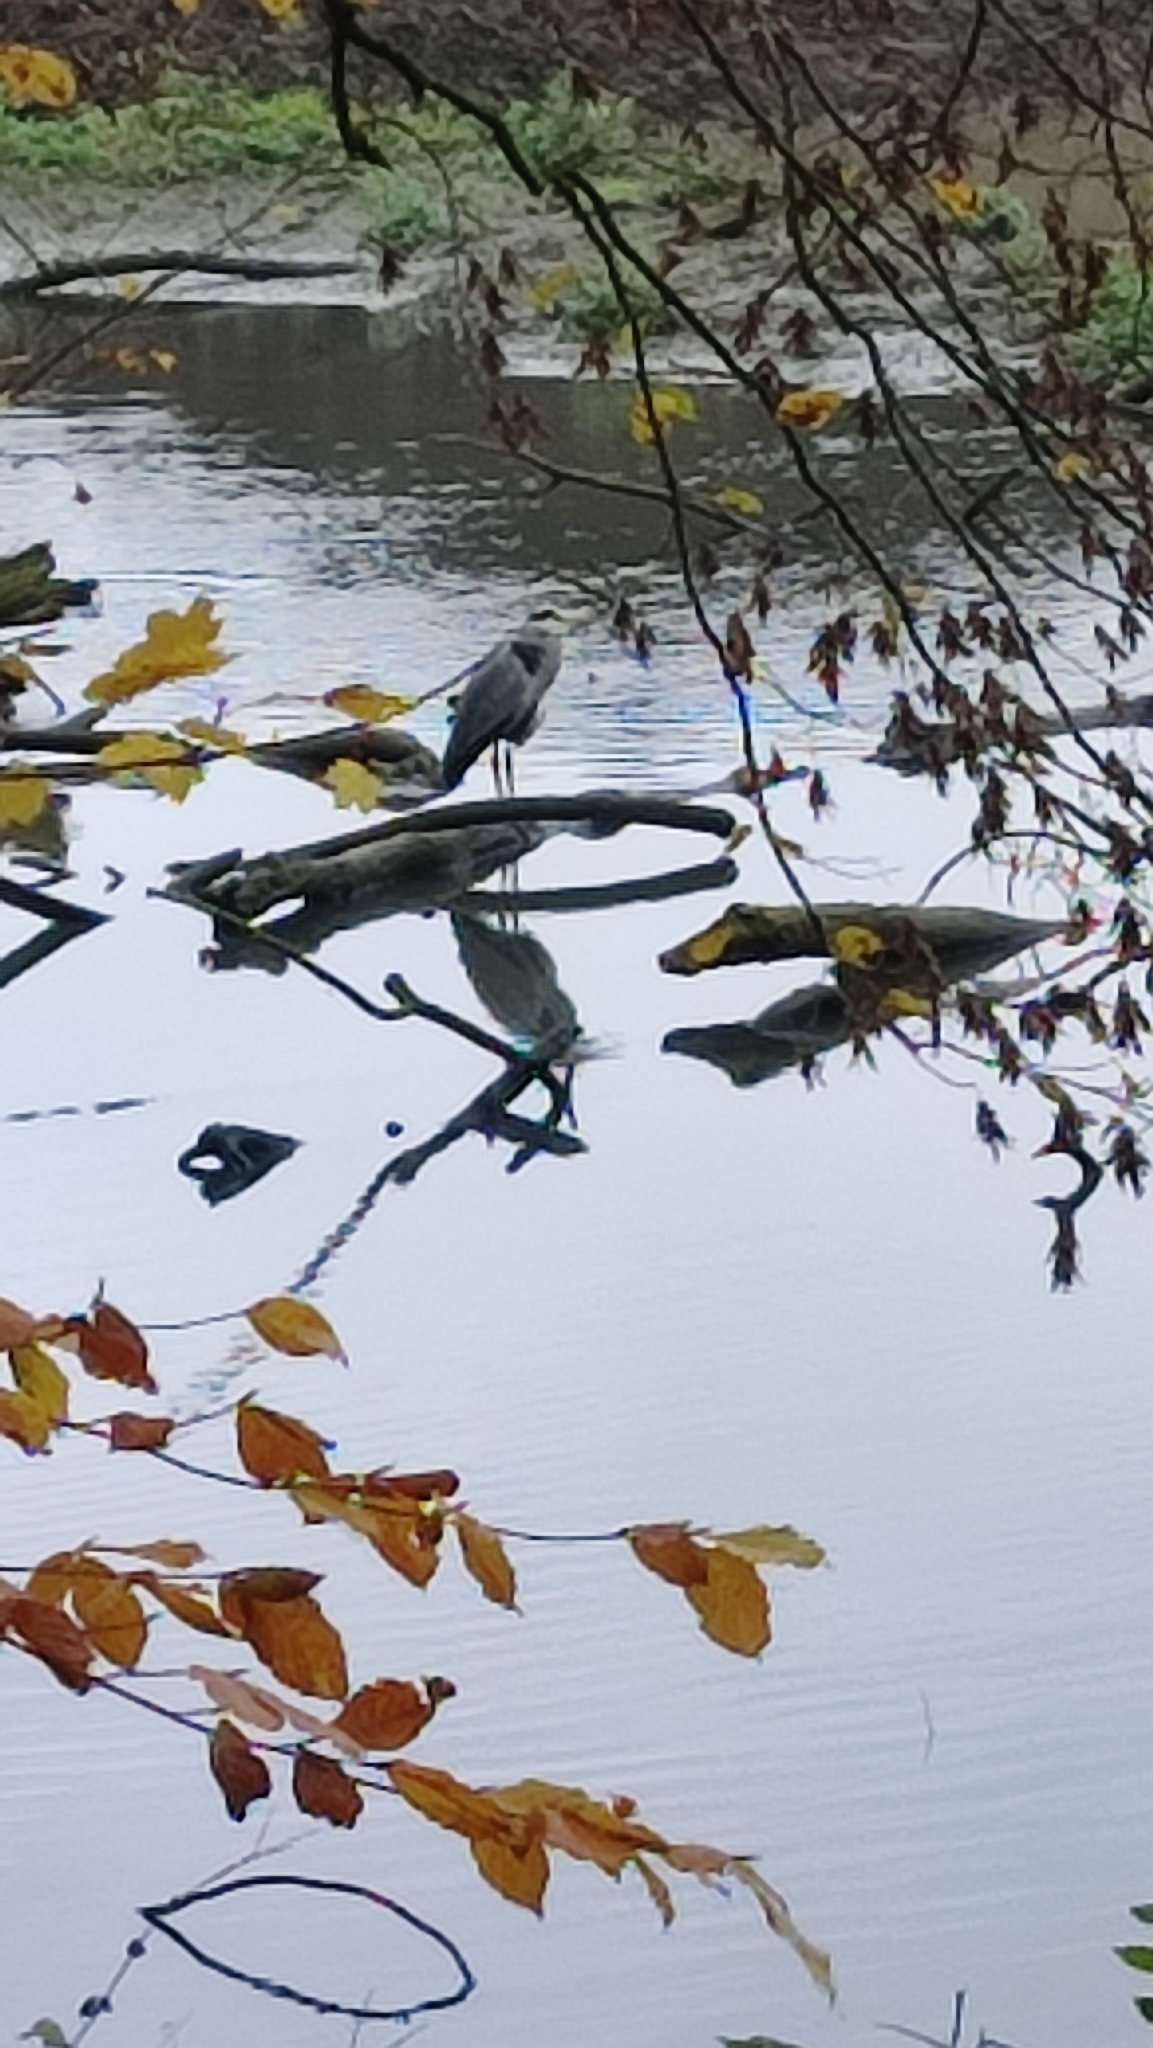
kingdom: Animalia
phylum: Chordata
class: Aves
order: Pelecaniformes
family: Ardeidae
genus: Ardea
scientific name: Ardea cinerea
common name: Grey heron
